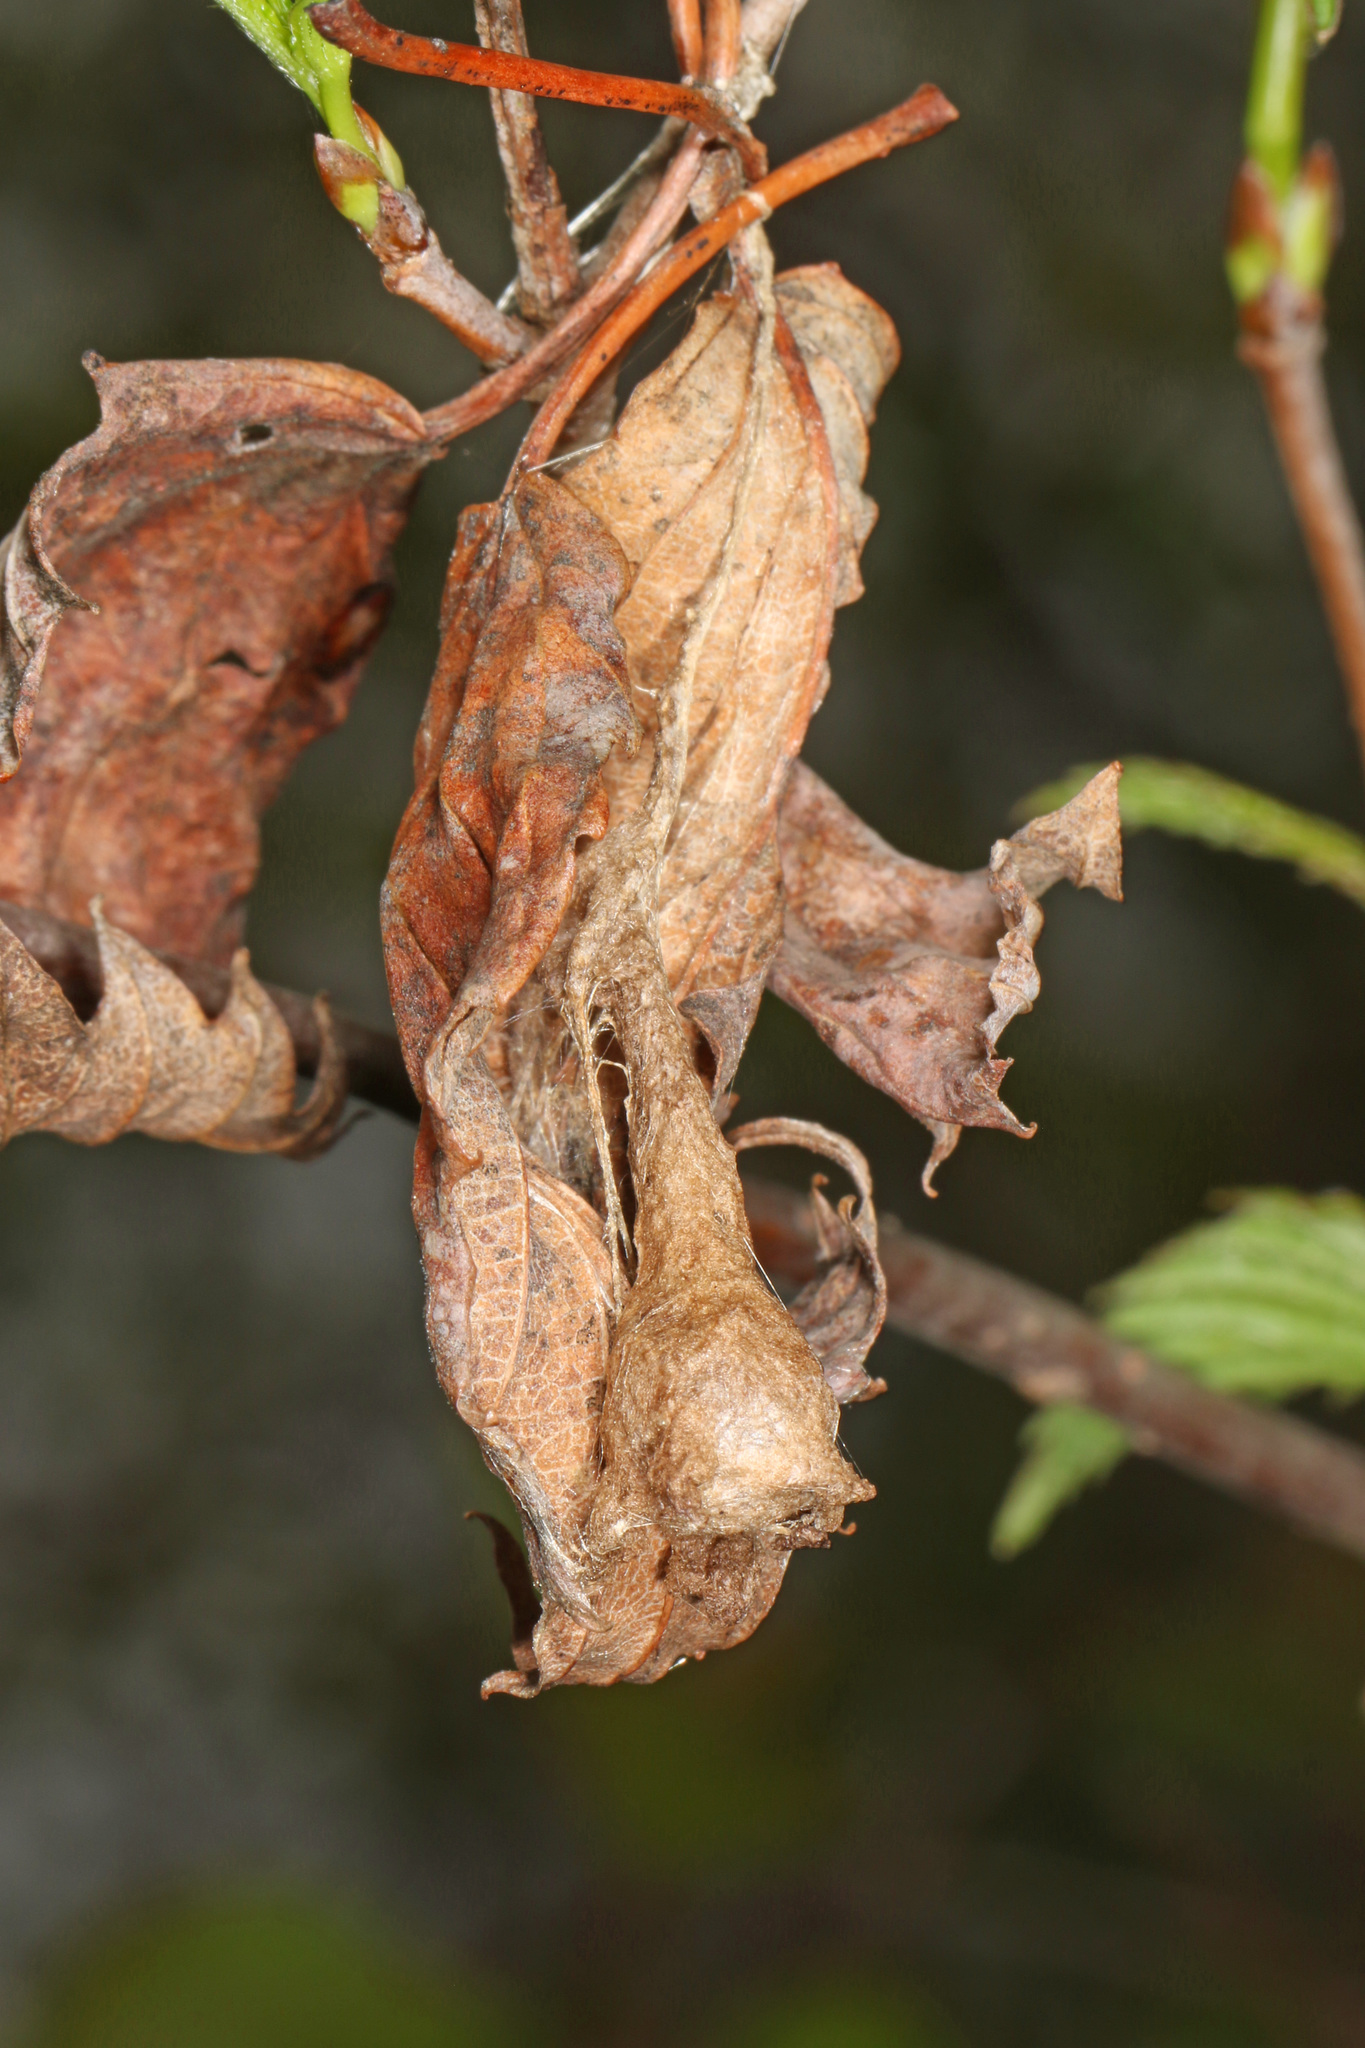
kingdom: Animalia
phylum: Arthropoda
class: Arachnida
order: Araneae
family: Araneidae
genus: Mastophora
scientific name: Mastophora phrynosoma
